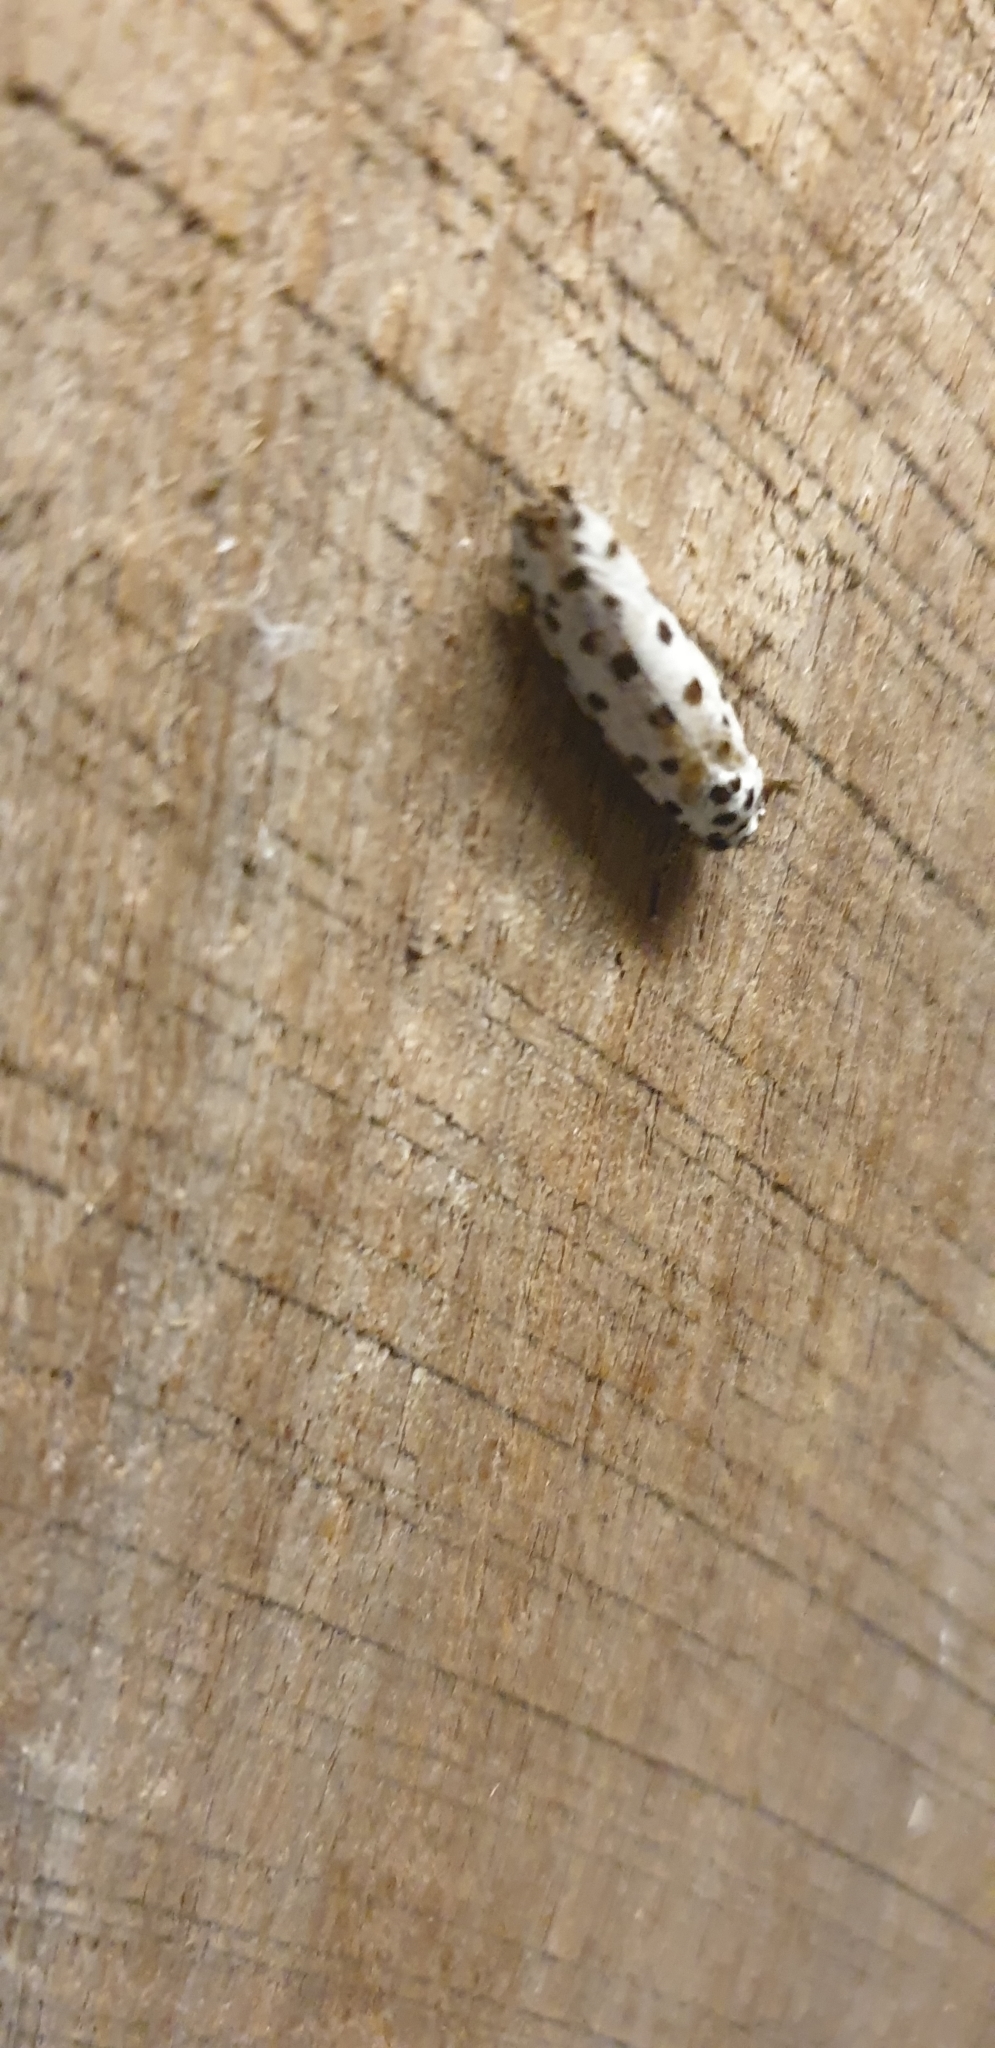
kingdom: Animalia
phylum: Arthropoda
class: Insecta
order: Lepidoptera
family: Ethmiidae
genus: Ethmia
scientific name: Ethmia clytodoxa
